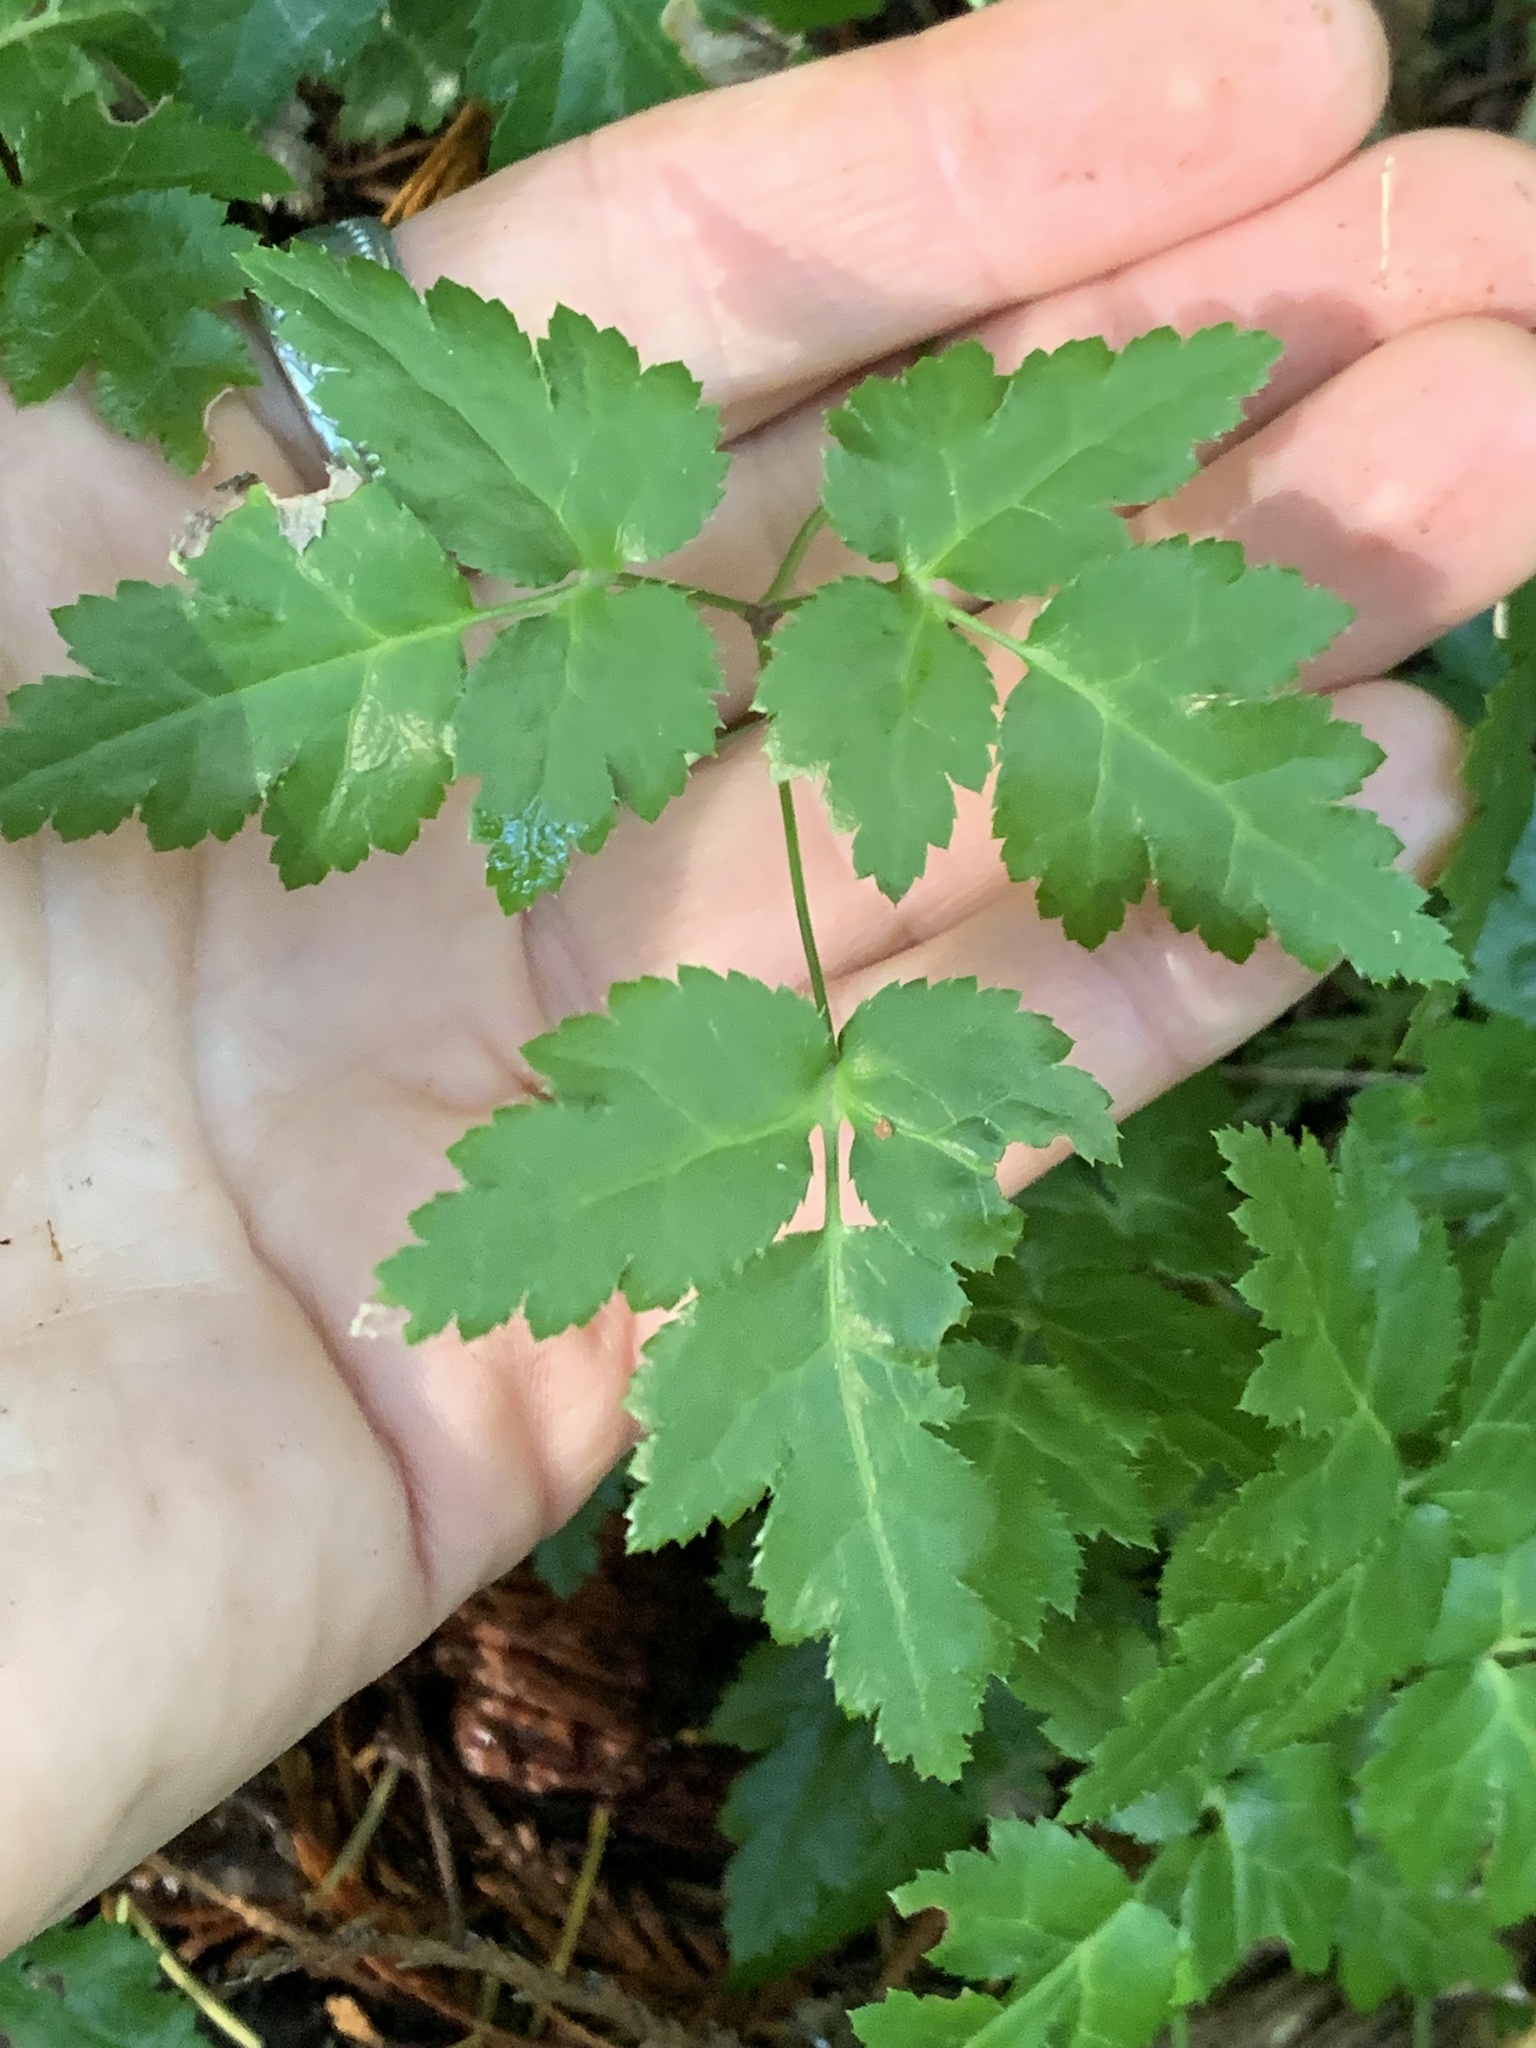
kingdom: Plantae
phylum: Tracheophyta
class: Magnoliopsida
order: Ranunculales
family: Ranunculaceae
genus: Coptis
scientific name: Coptis laciniata
